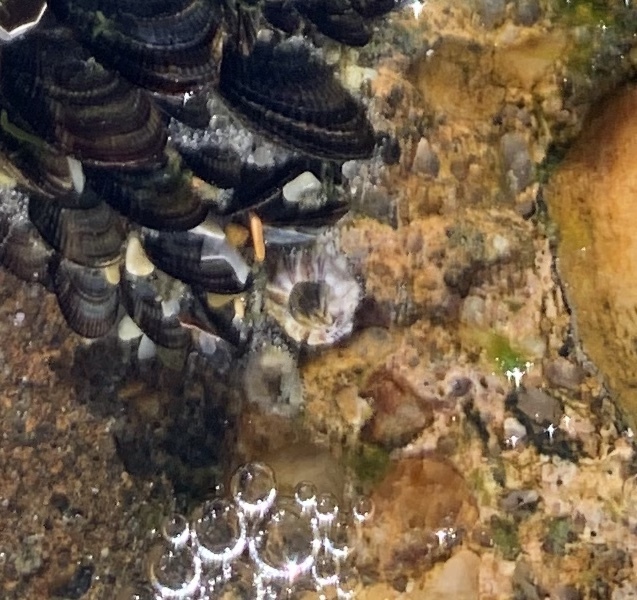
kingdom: Animalia
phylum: Arthropoda
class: Maxillopoda
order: Sessilia
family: Balanidae
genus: Amphibalanus
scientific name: Amphibalanus amphitrite
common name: Striped acorn barnacle
